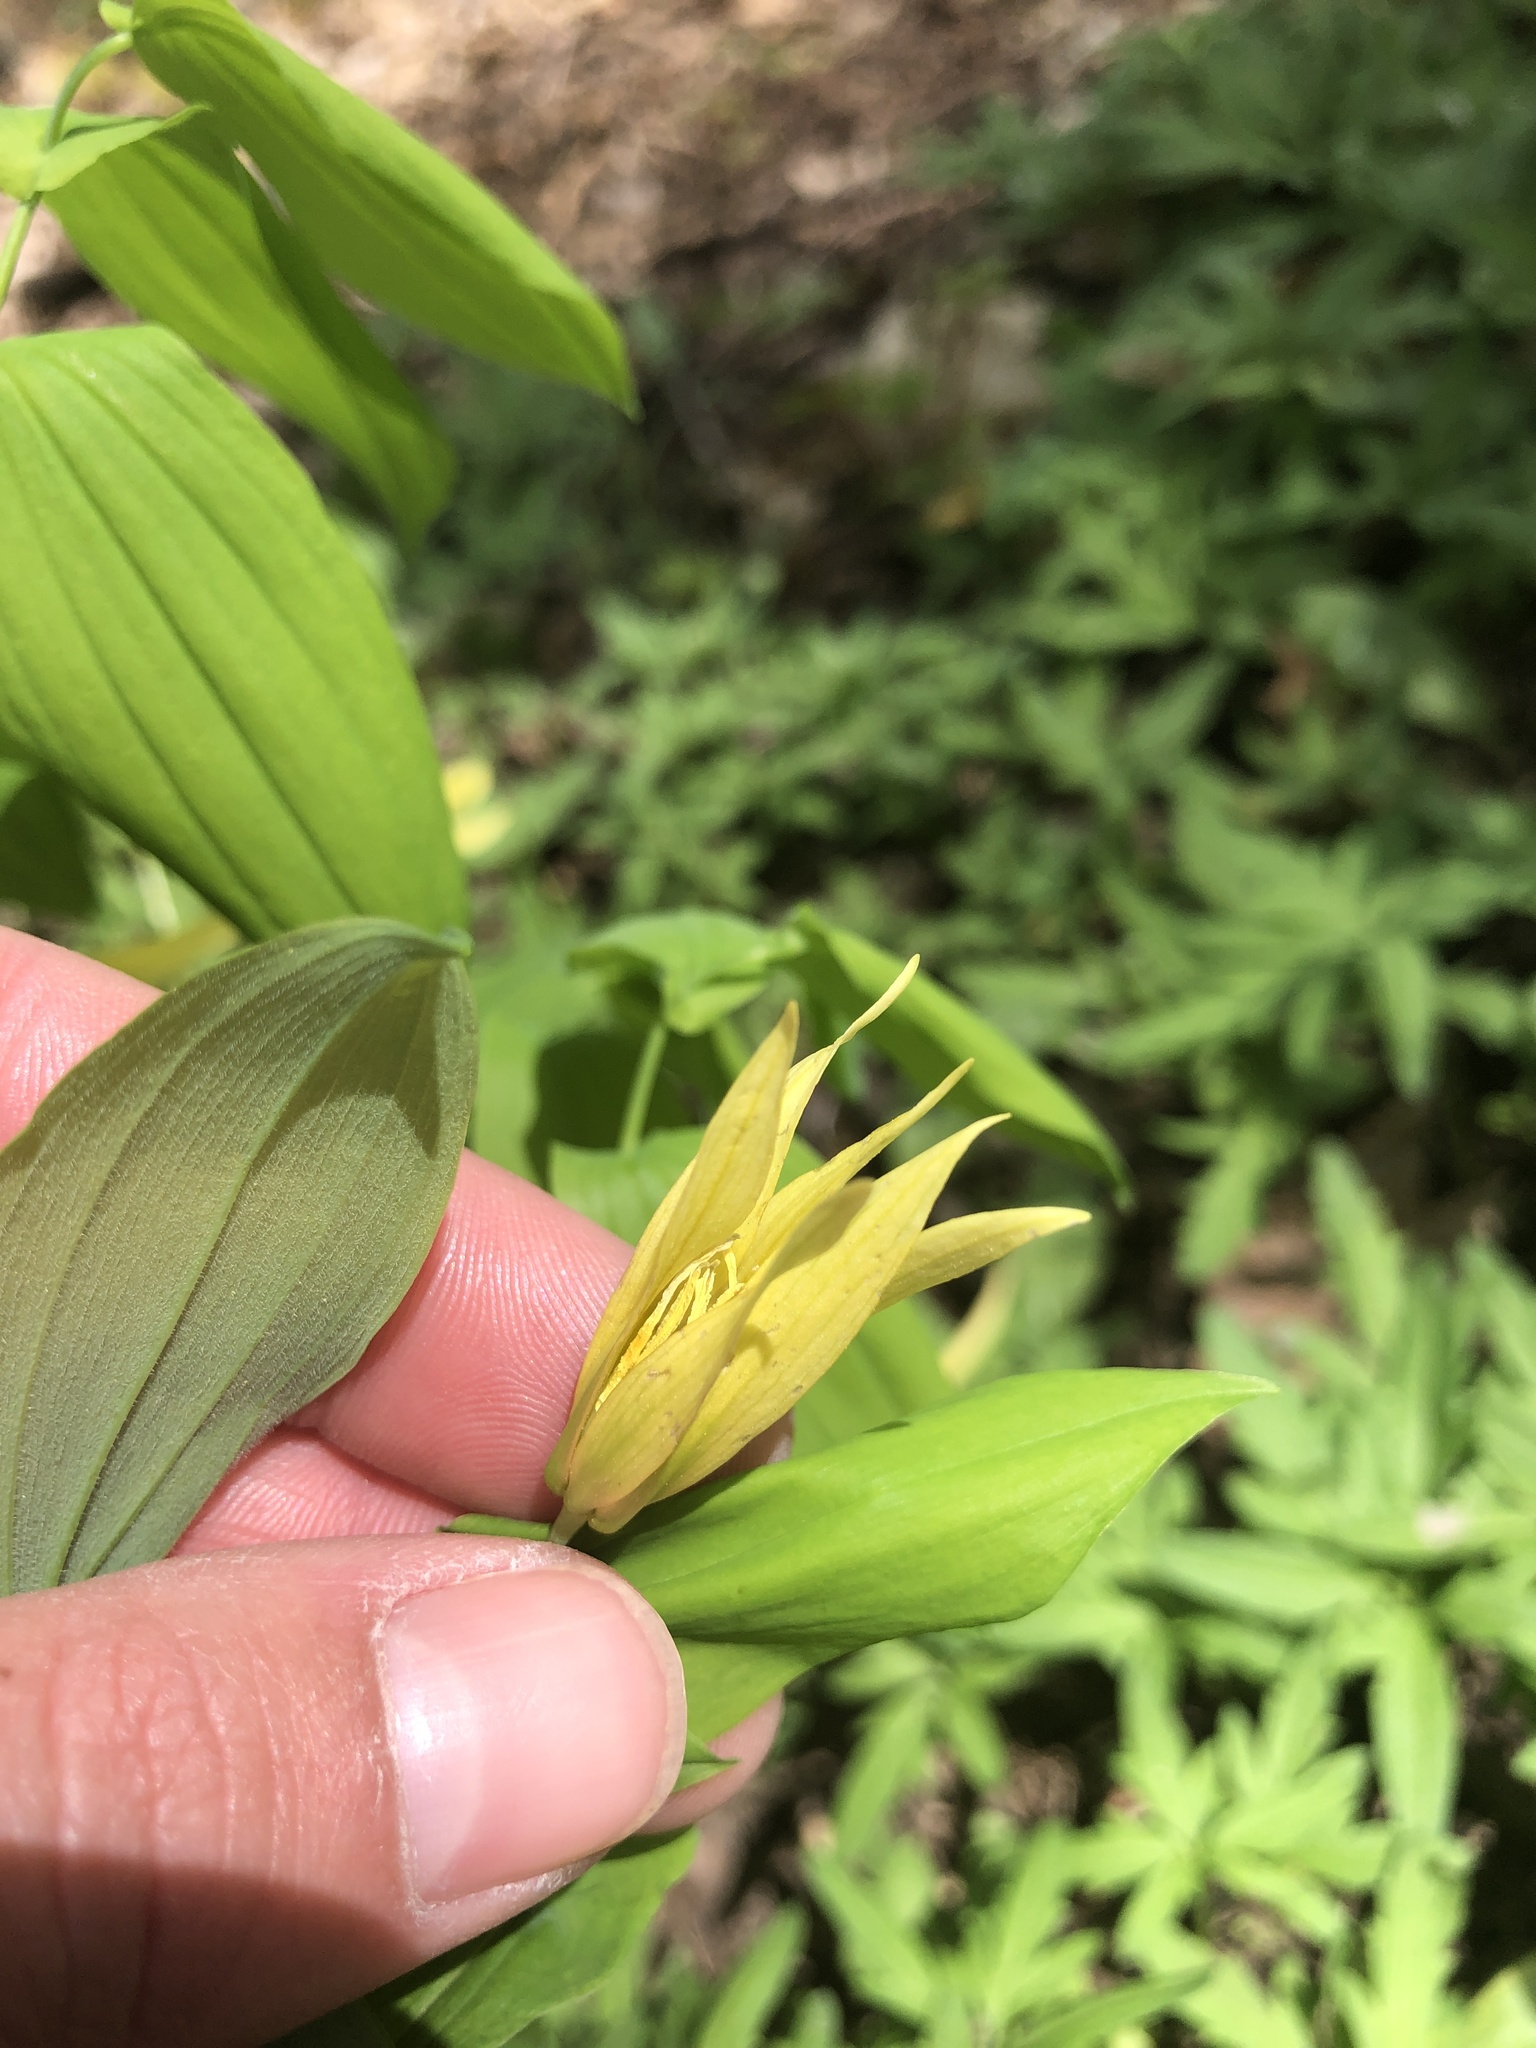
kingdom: Plantae
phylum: Tracheophyta
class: Liliopsida
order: Liliales
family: Colchicaceae
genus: Uvularia
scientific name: Uvularia grandiflora
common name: Bellwort
